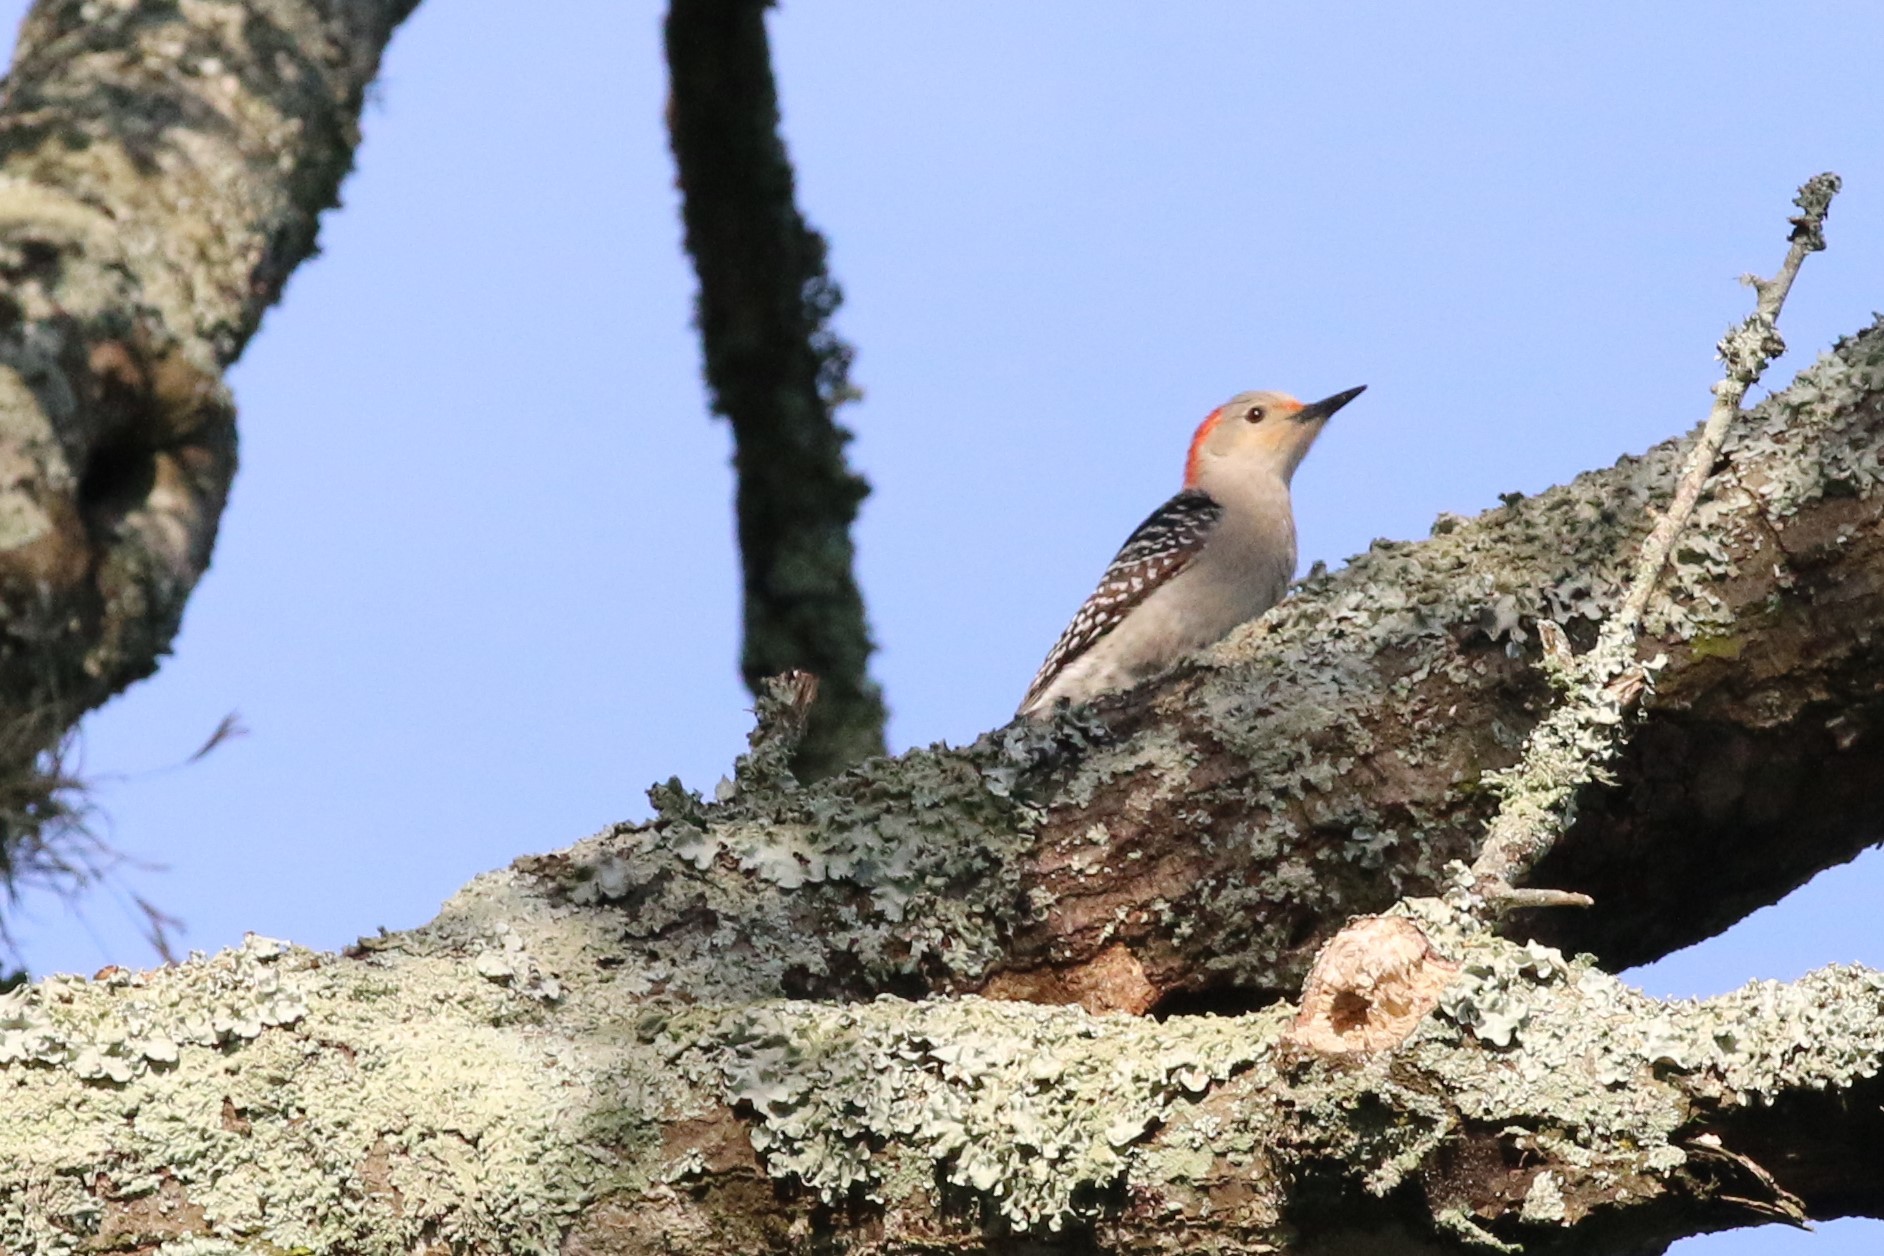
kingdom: Animalia
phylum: Chordata
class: Aves
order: Piciformes
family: Picidae
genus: Melanerpes
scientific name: Melanerpes carolinus
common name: Red-bellied woodpecker
